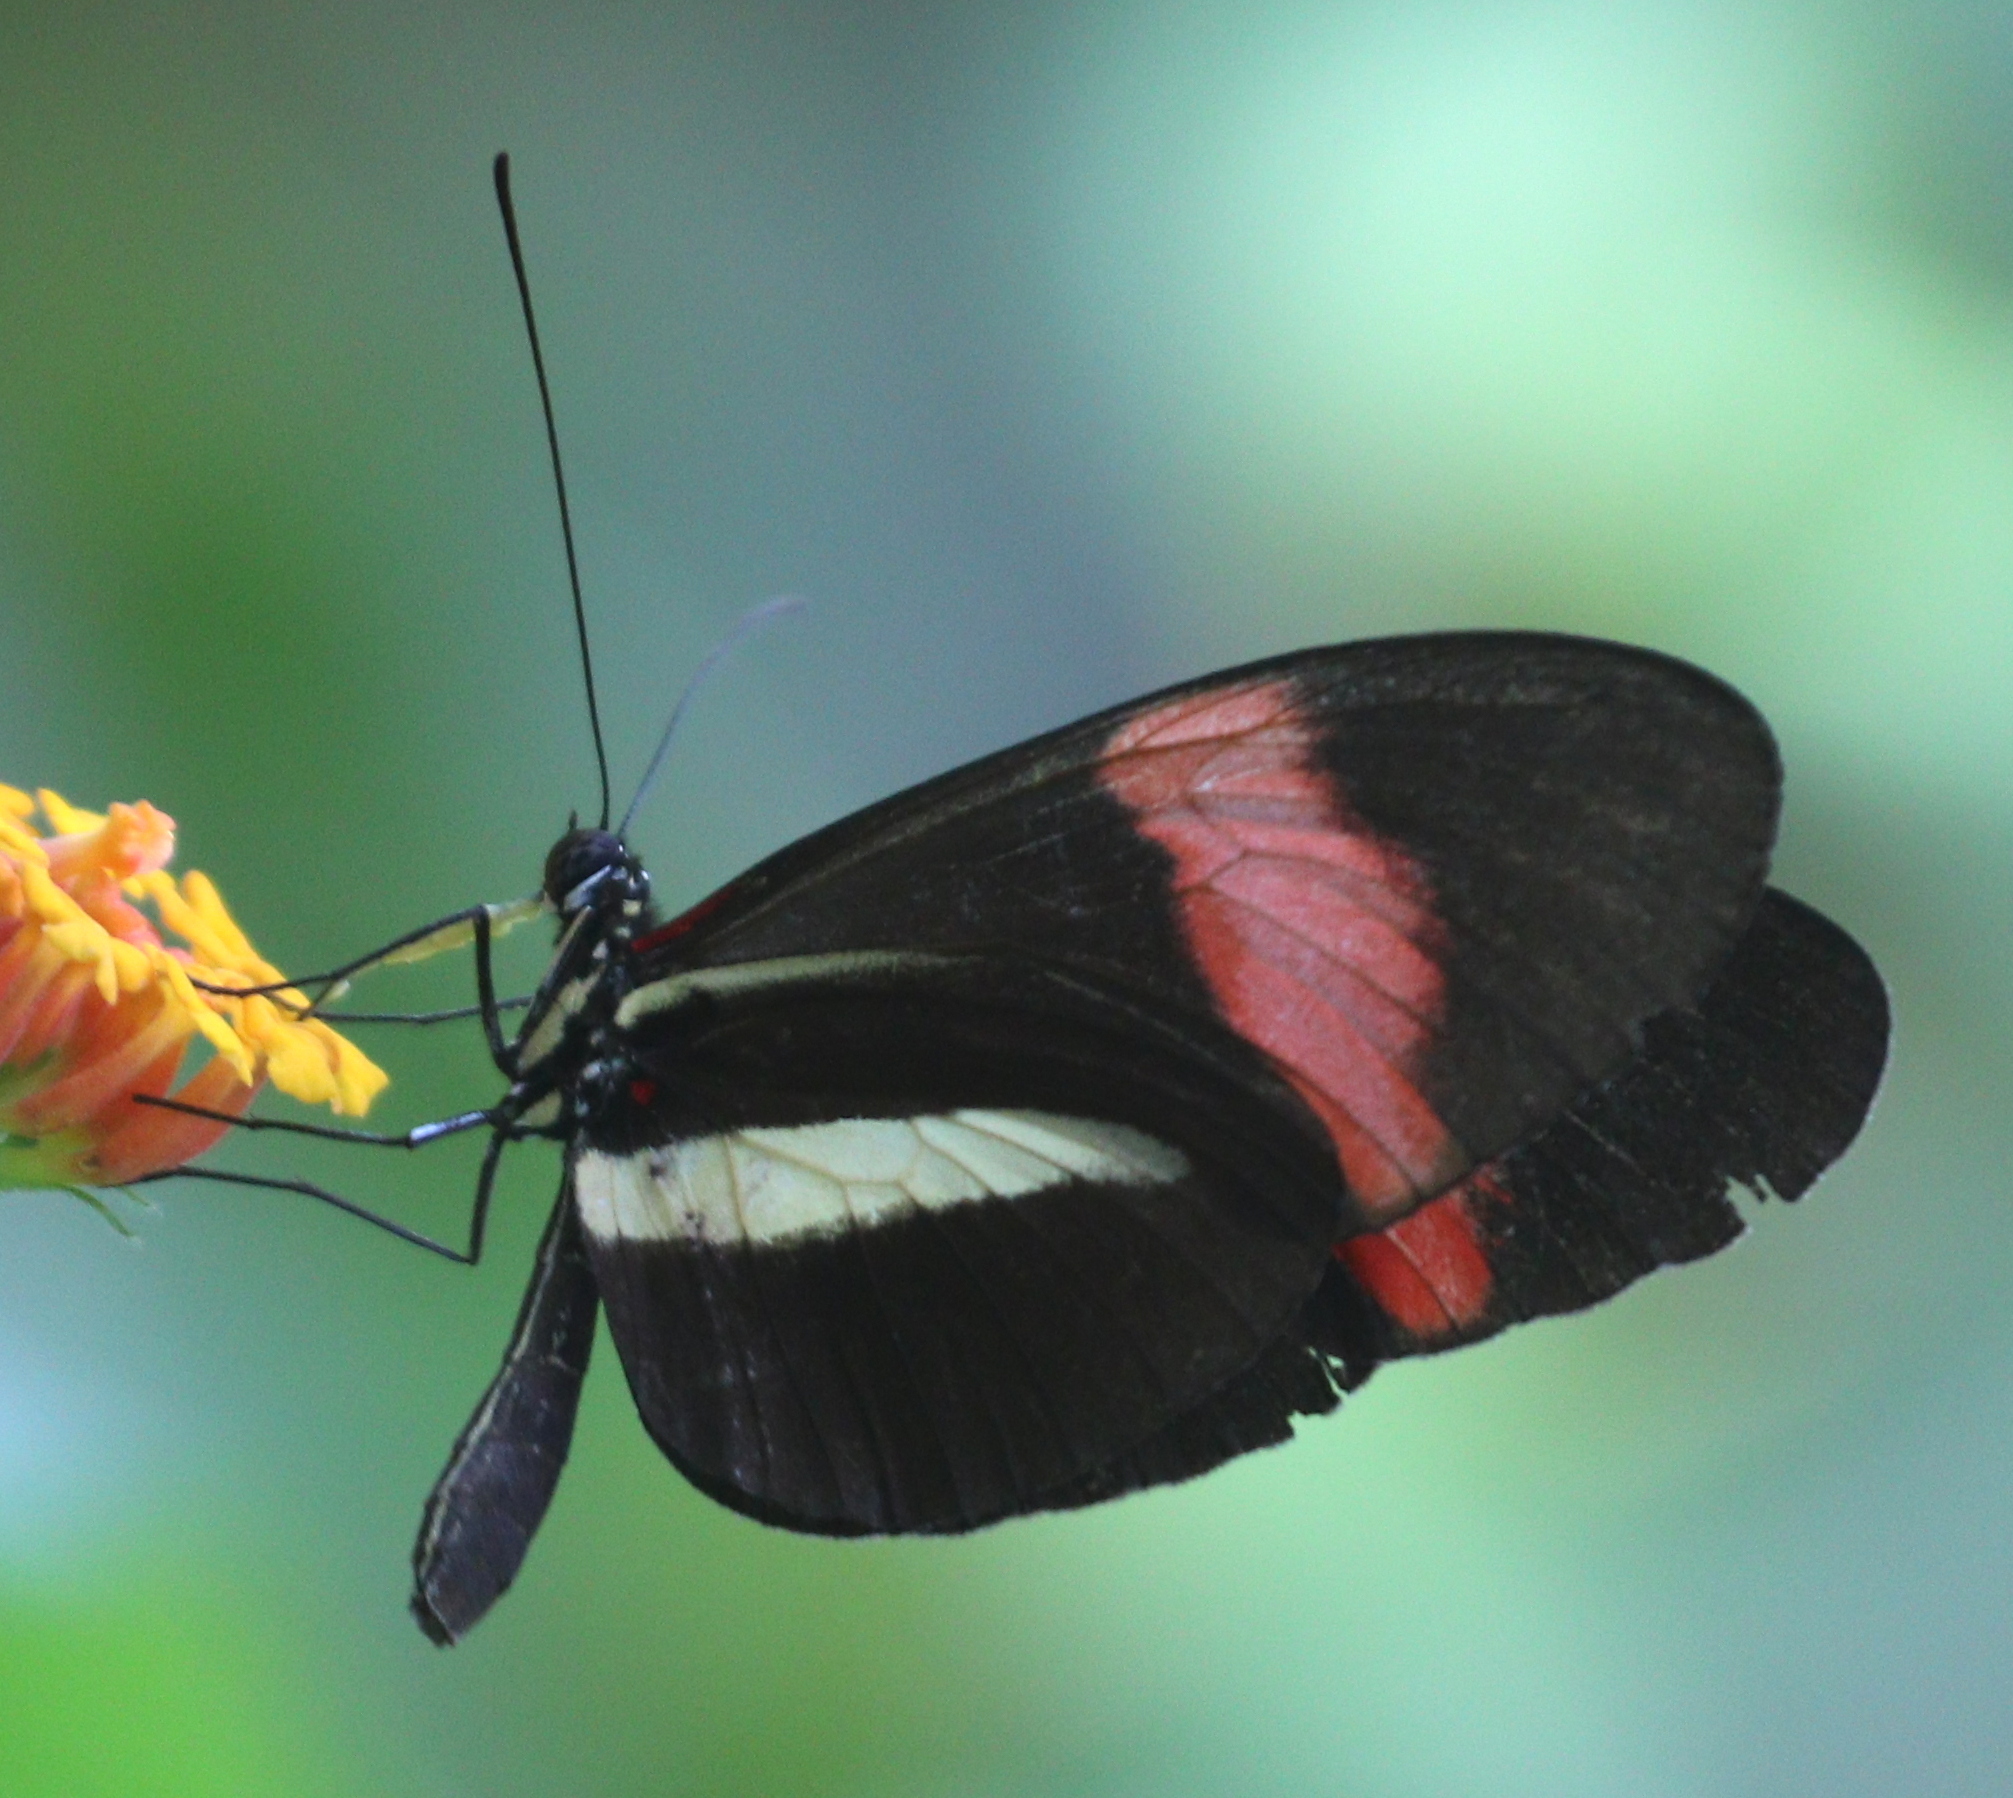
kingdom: Animalia
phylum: Arthropoda
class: Insecta
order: Lepidoptera
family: Nymphalidae
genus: Heliconius
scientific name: Heliconius melpomene
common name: Postman
